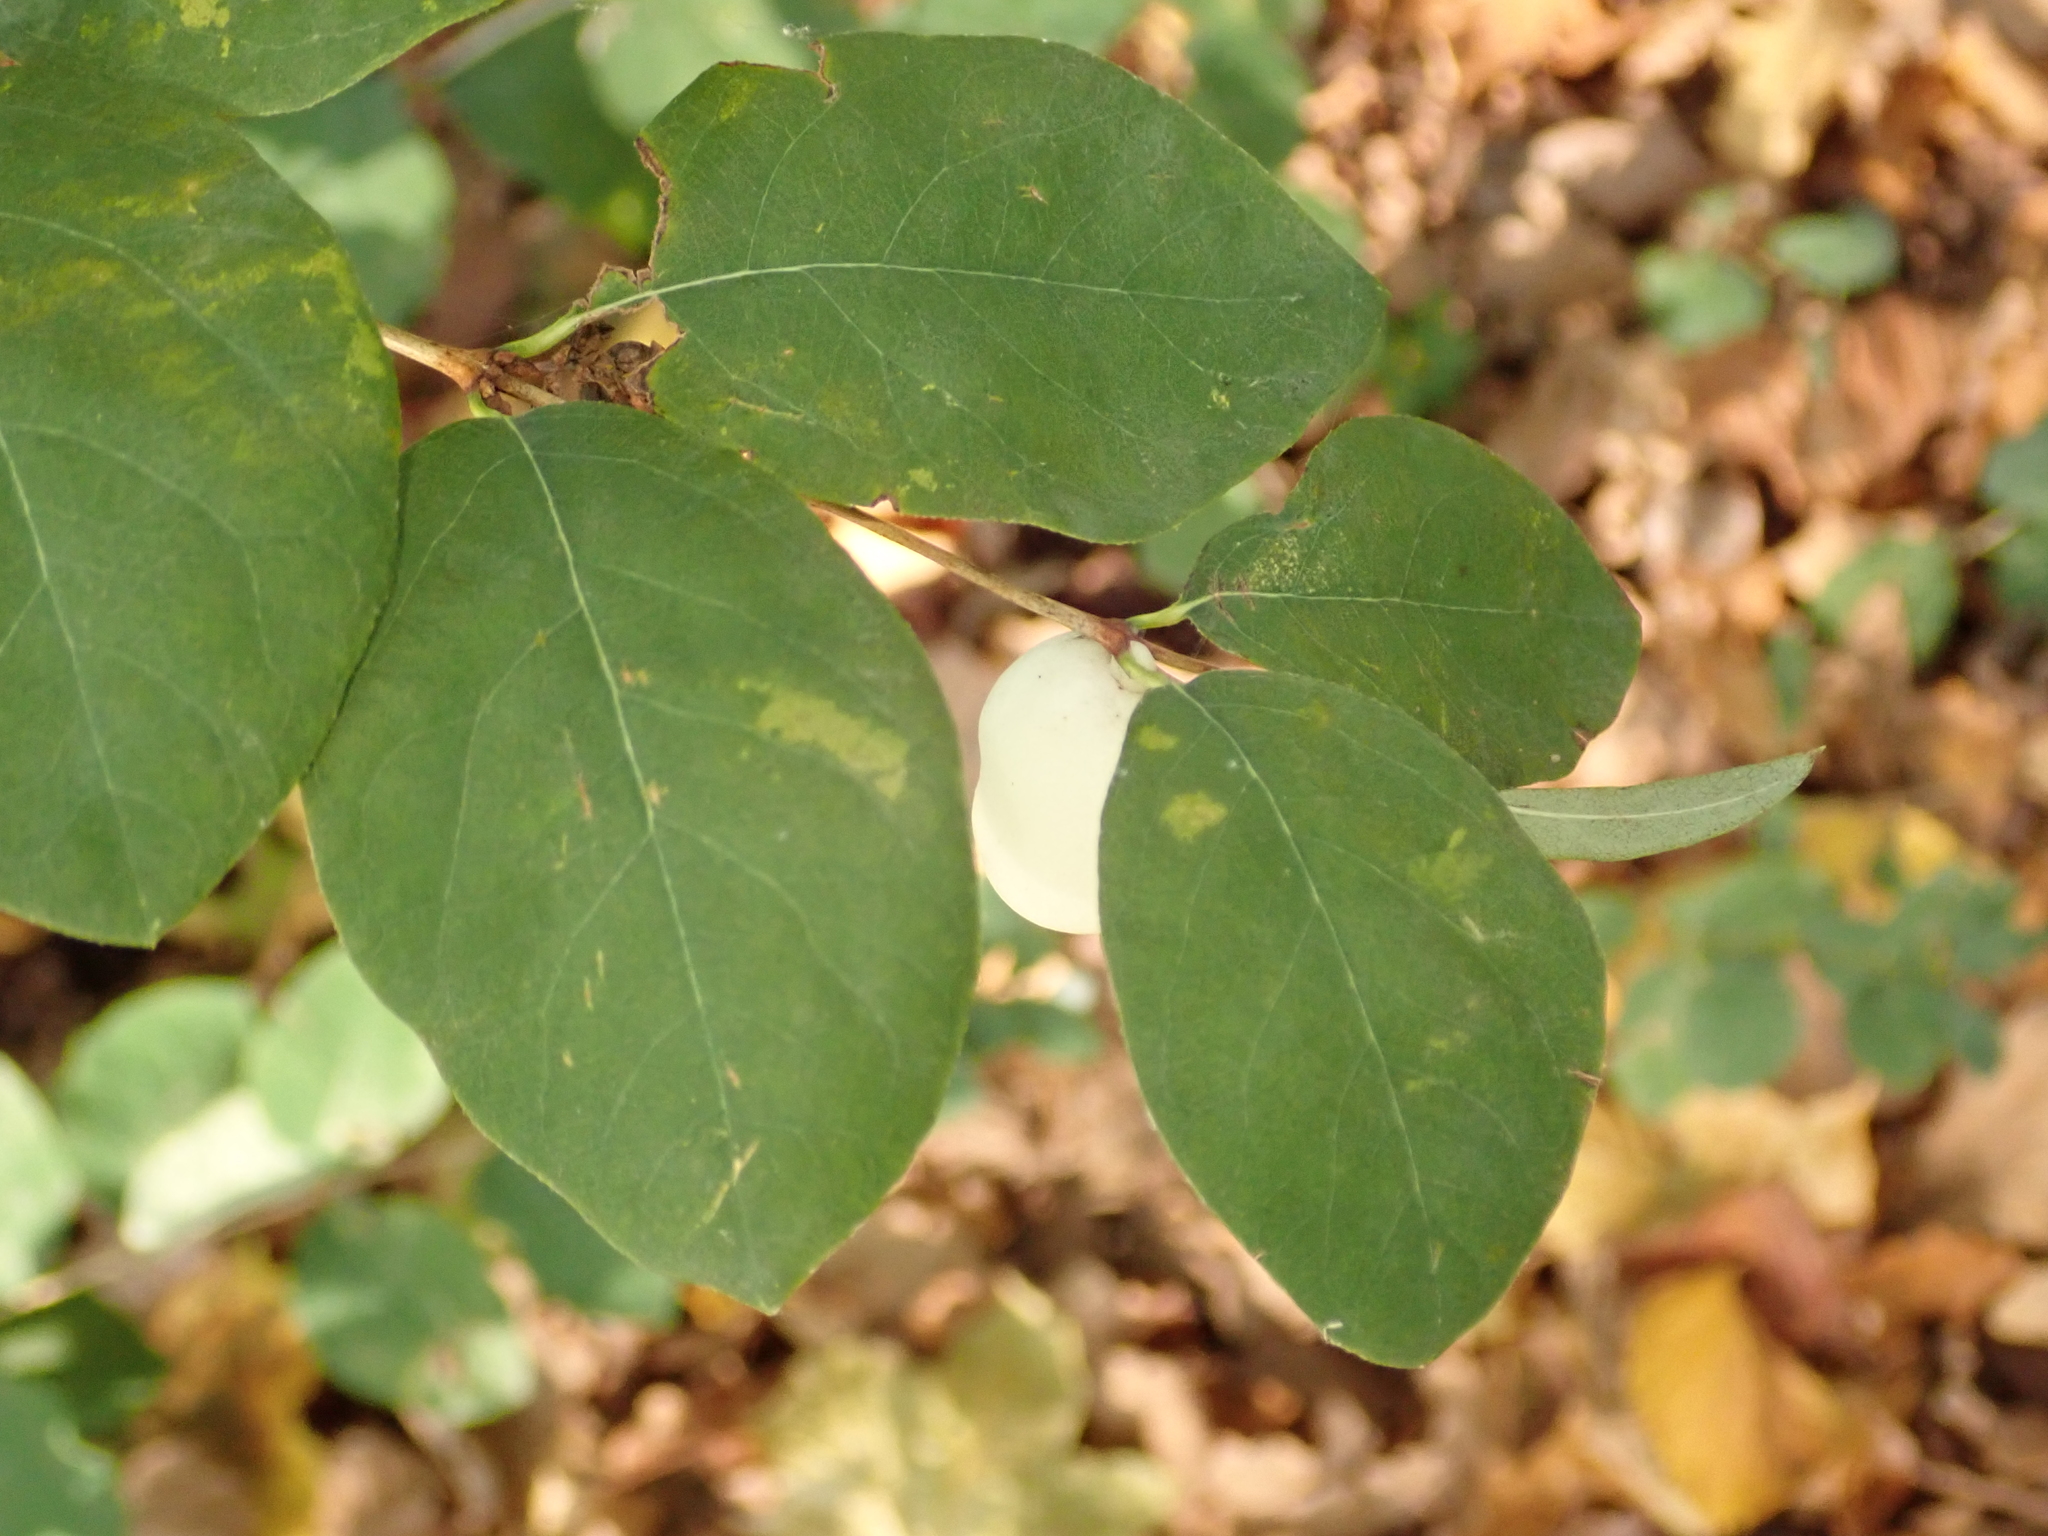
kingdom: Plantae
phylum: Tracheophyta
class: Magnoliopsida
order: Dipsacales
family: Caprifoliaceae
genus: Symphoricarpos
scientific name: Symphoricarpos albus
